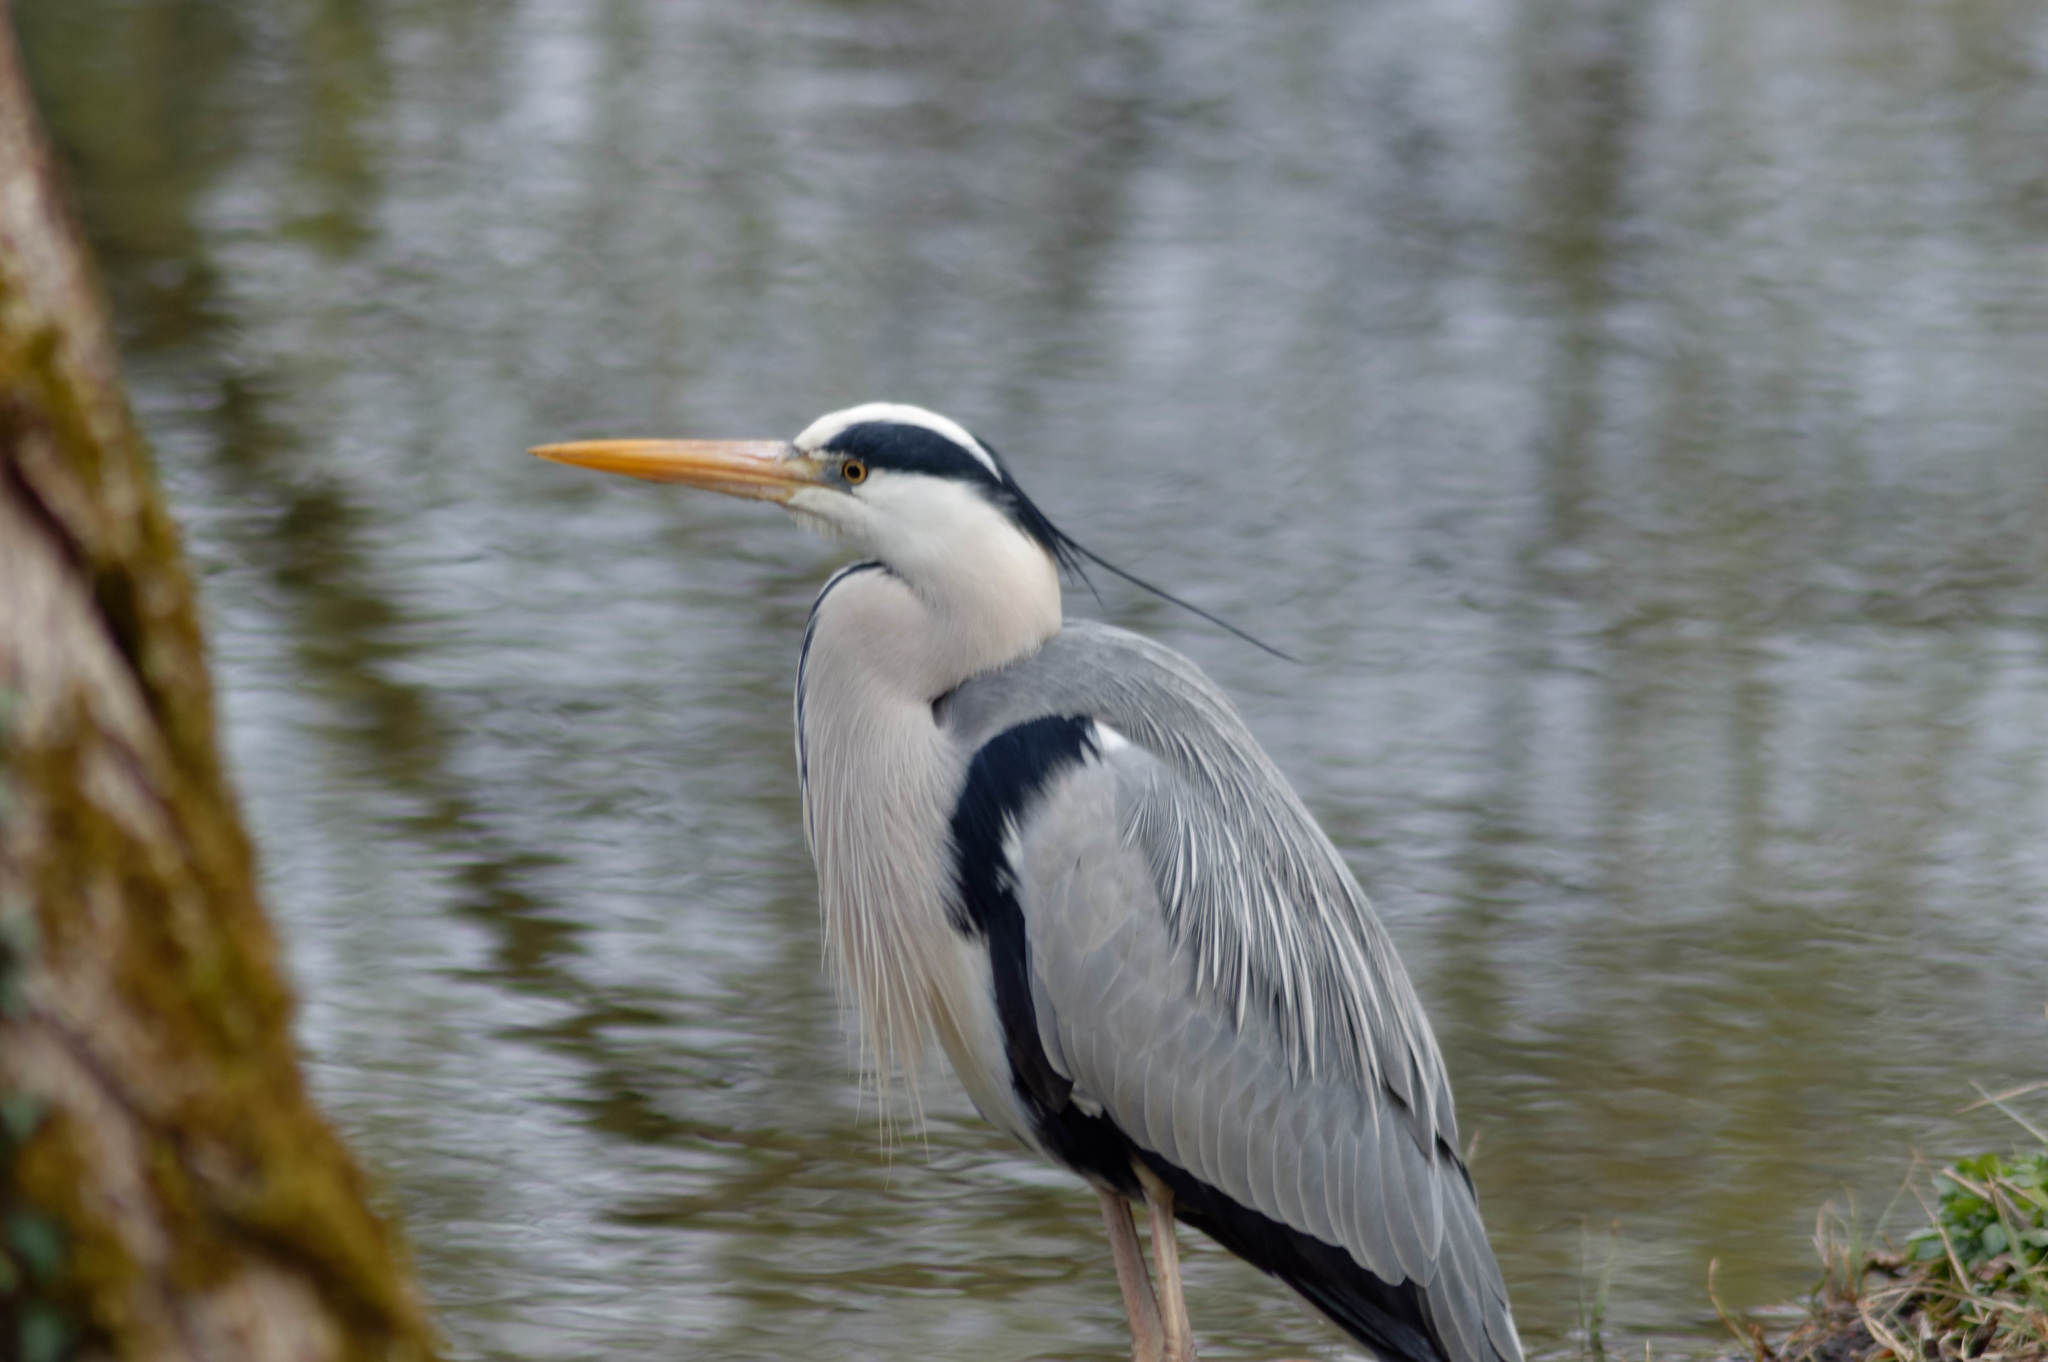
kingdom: Animalia
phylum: Chordata
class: Aves
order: Pelecaniformes
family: Ardeidae
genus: Ardea
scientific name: Ardea cinerea
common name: Grey heron
